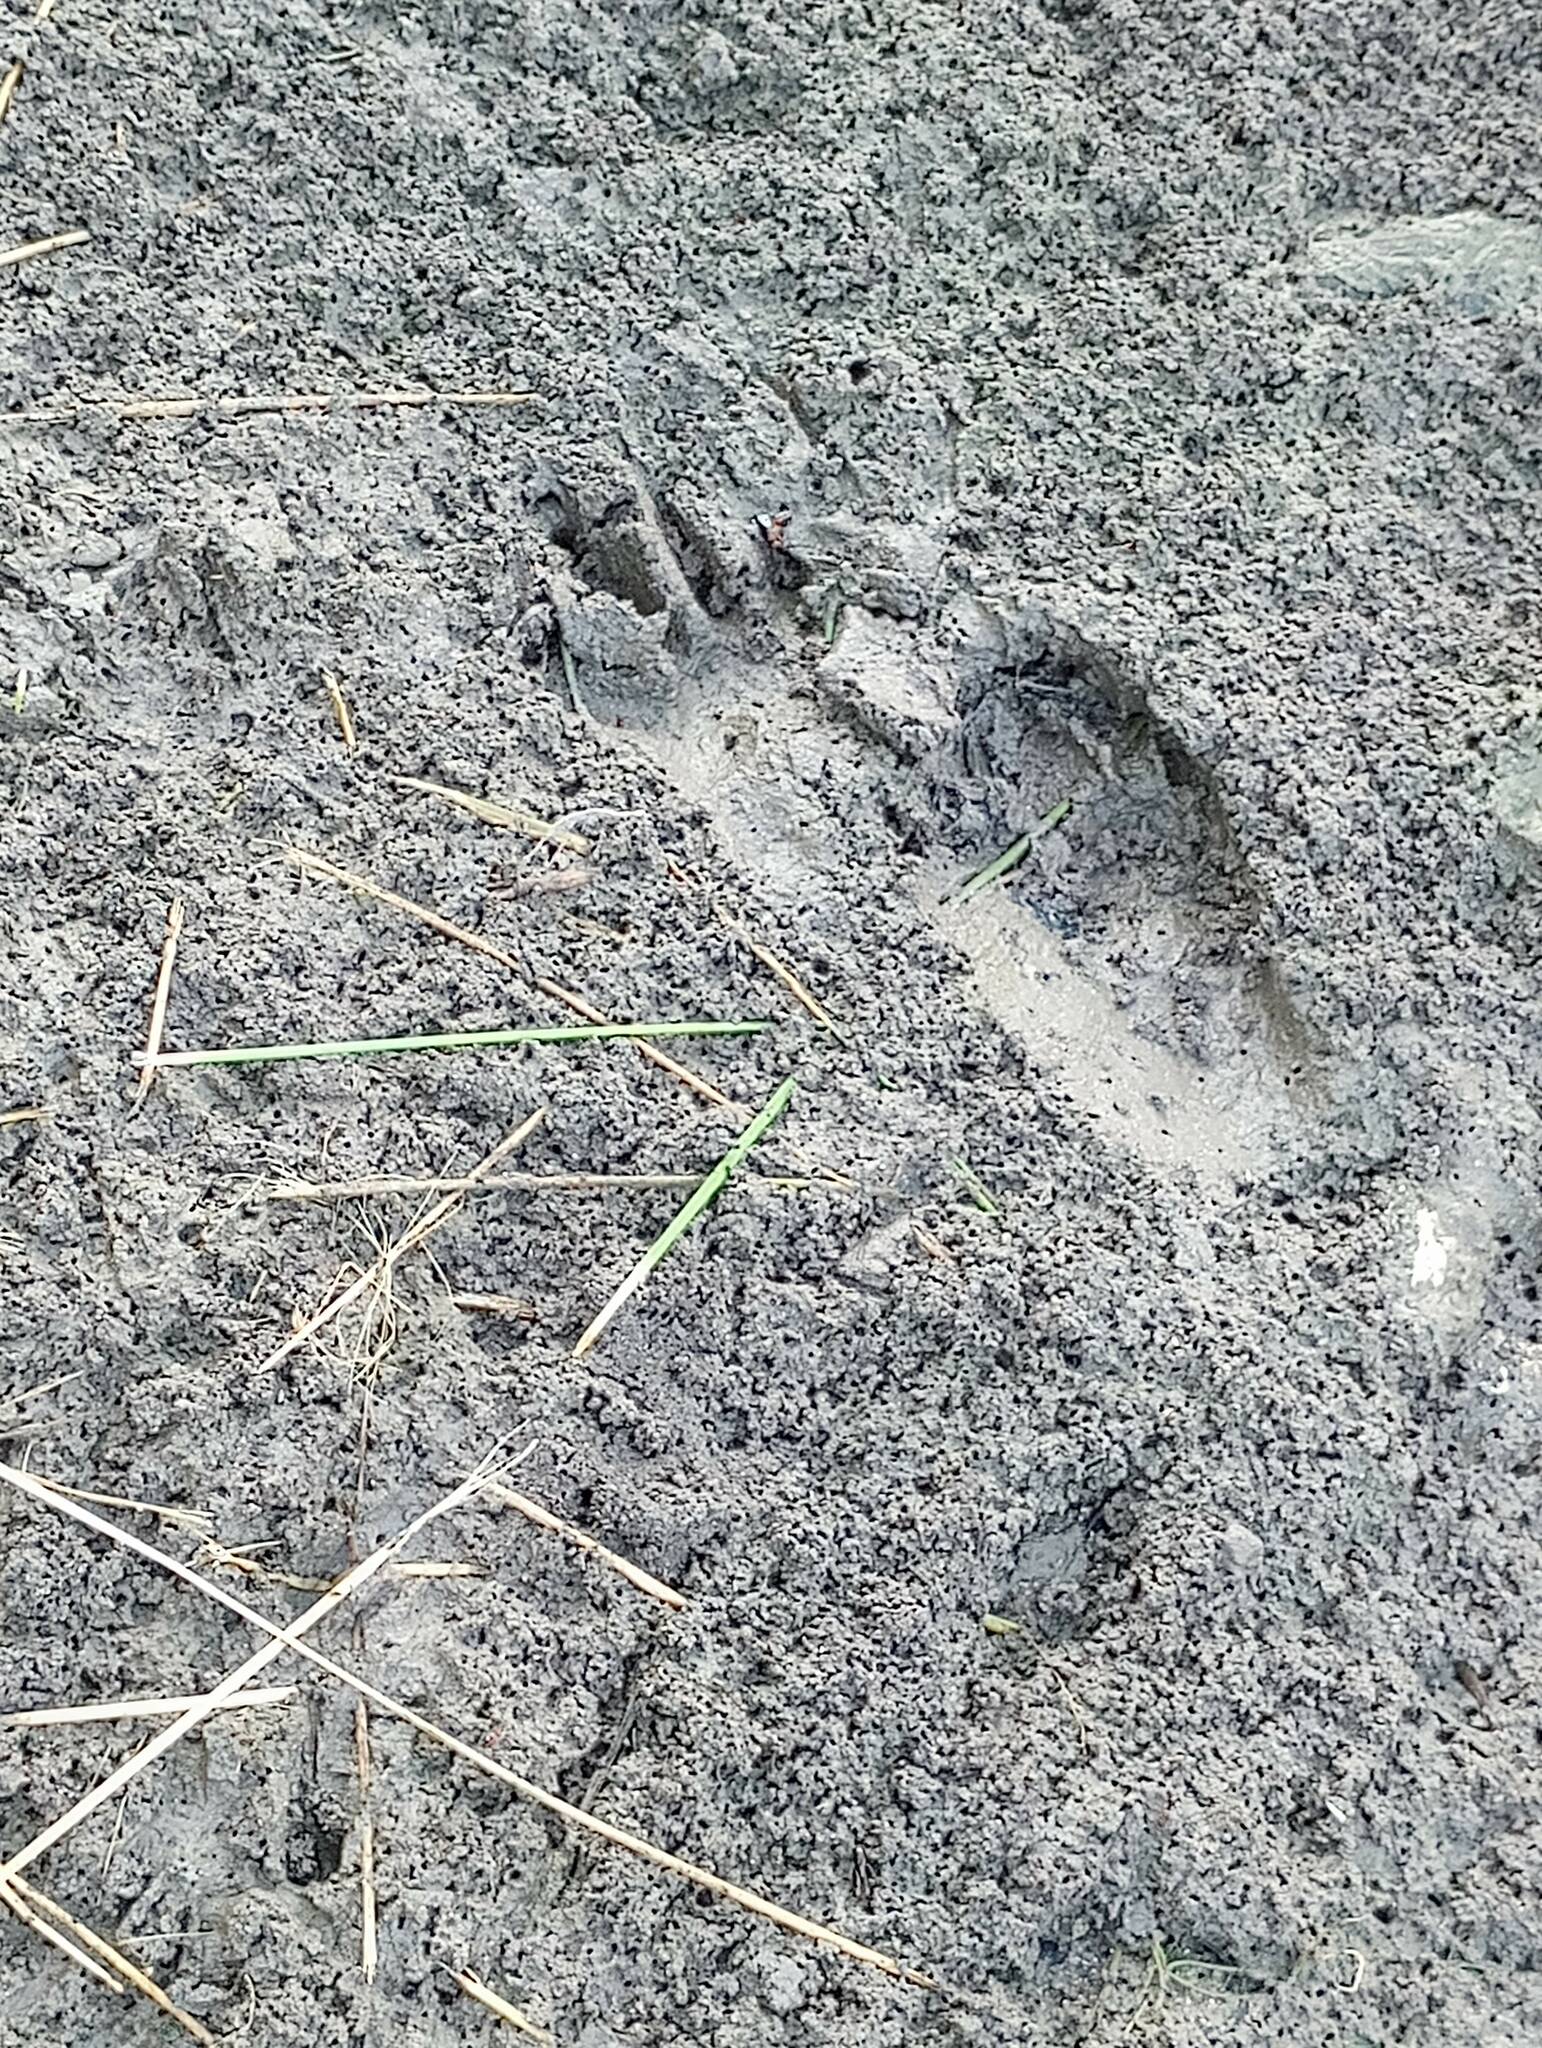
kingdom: Animalia
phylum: Chordata
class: Mammalia
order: Carnivora
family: Procyonidae
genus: Procyon
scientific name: Procyon lotor
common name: Raccoon
